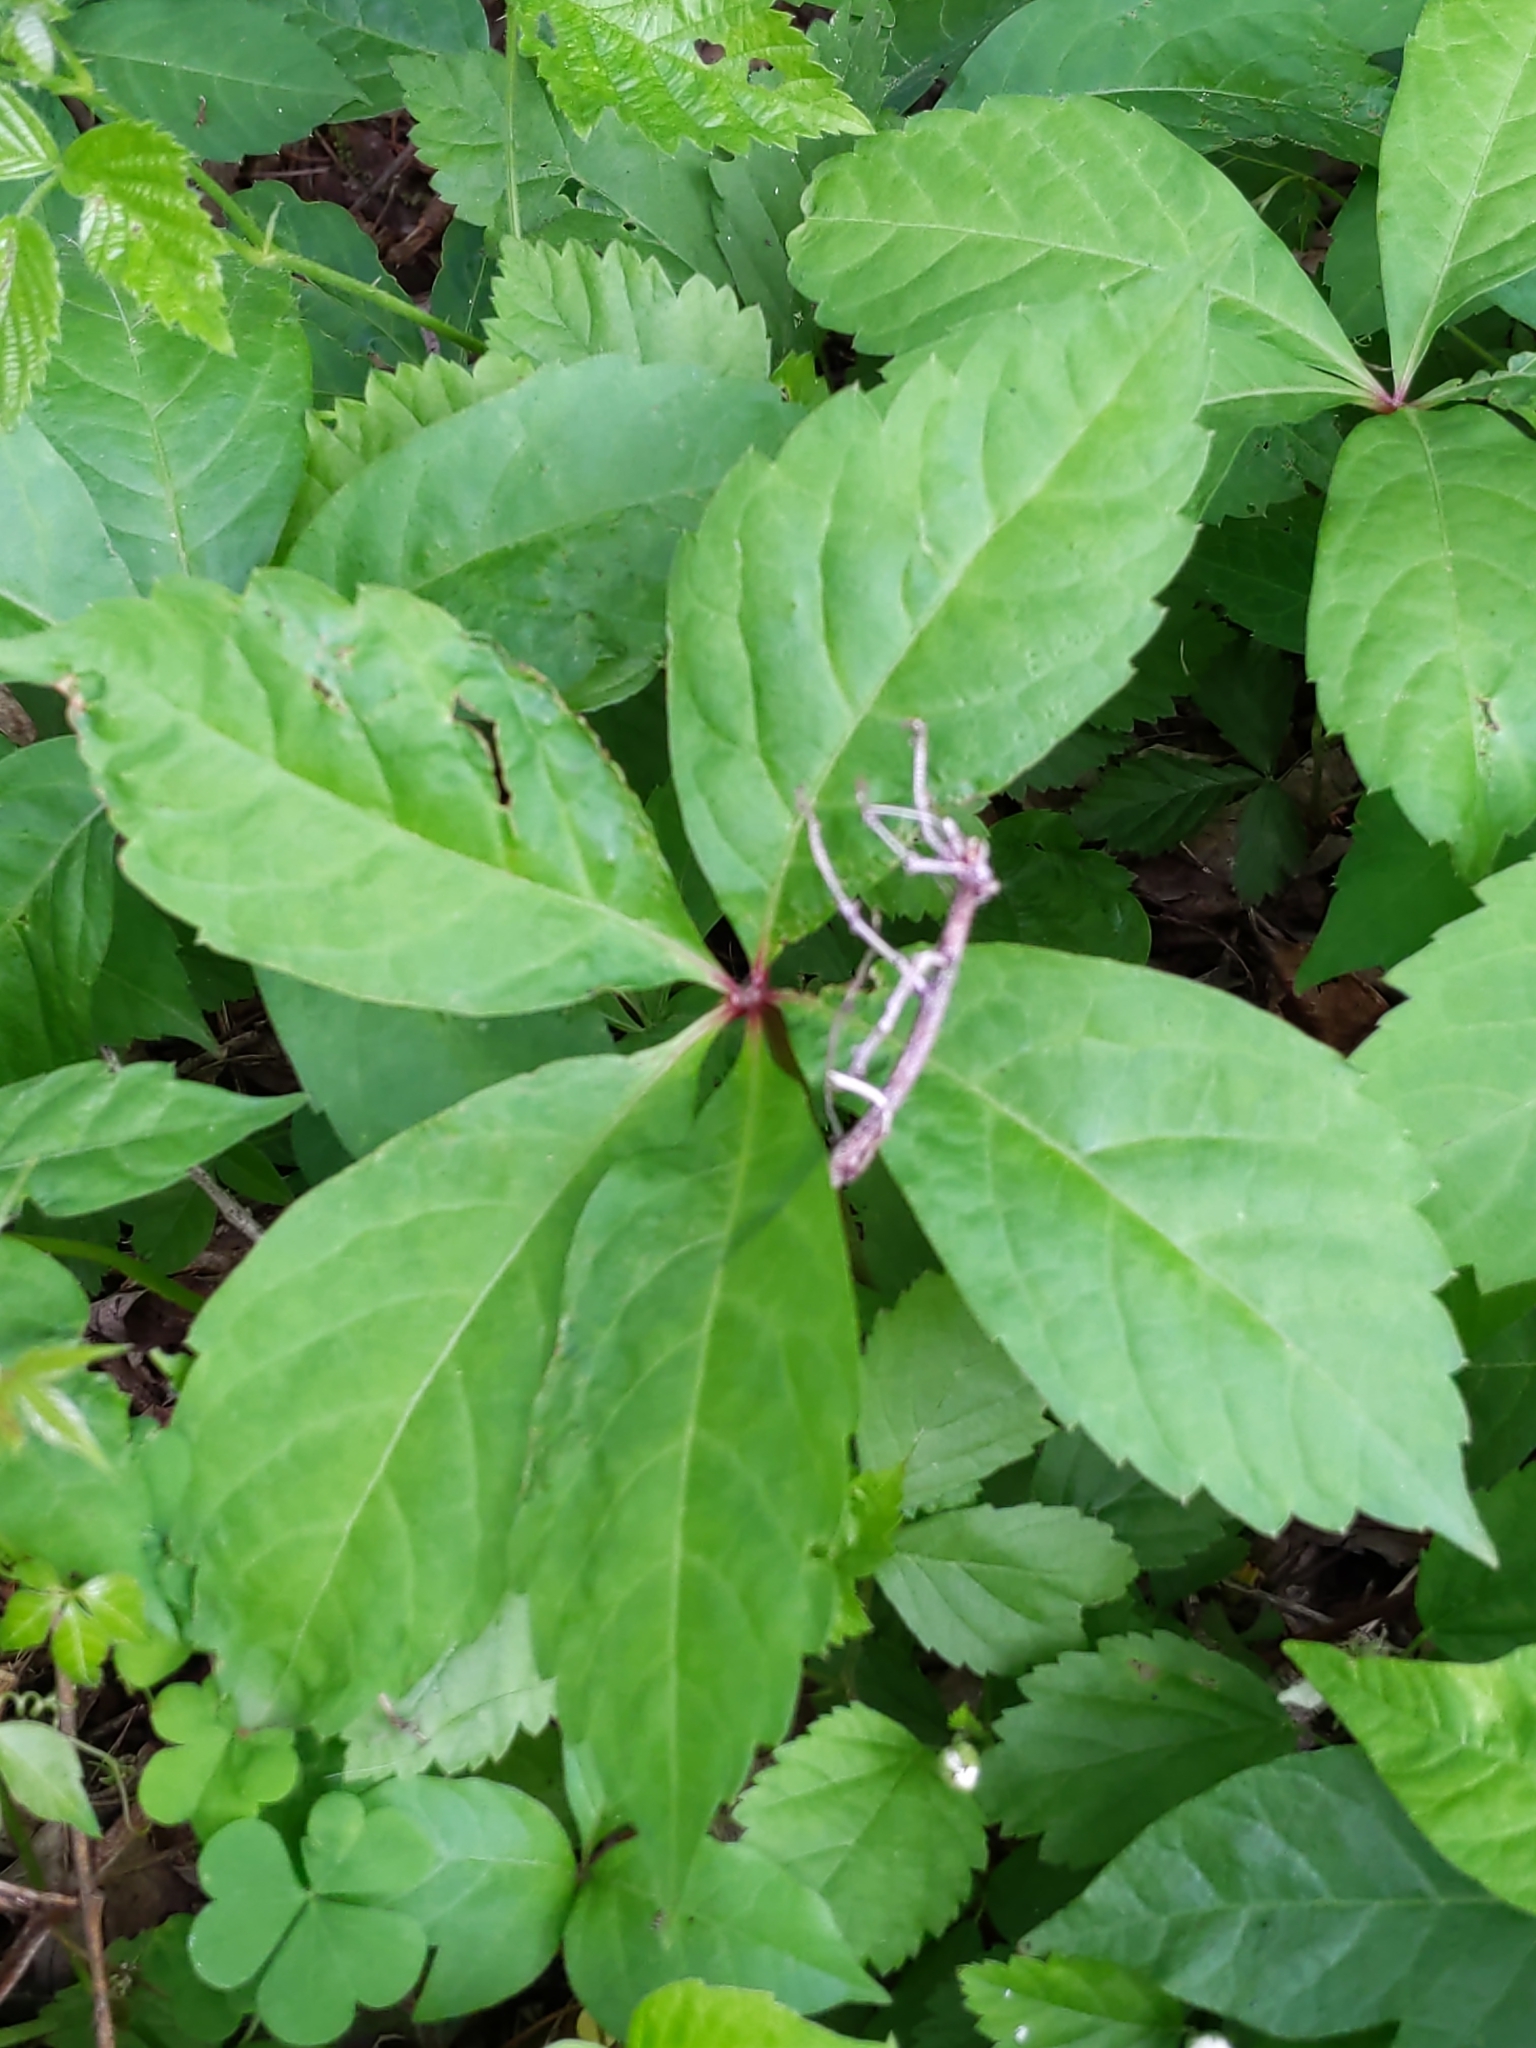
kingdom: Plantae
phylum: Tracheophyta
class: Magnoliopsida
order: Vitales
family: Vitaceae
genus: Parthenocissus
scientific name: Parthenocissus quinquefolia
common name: Virginia-creeper
